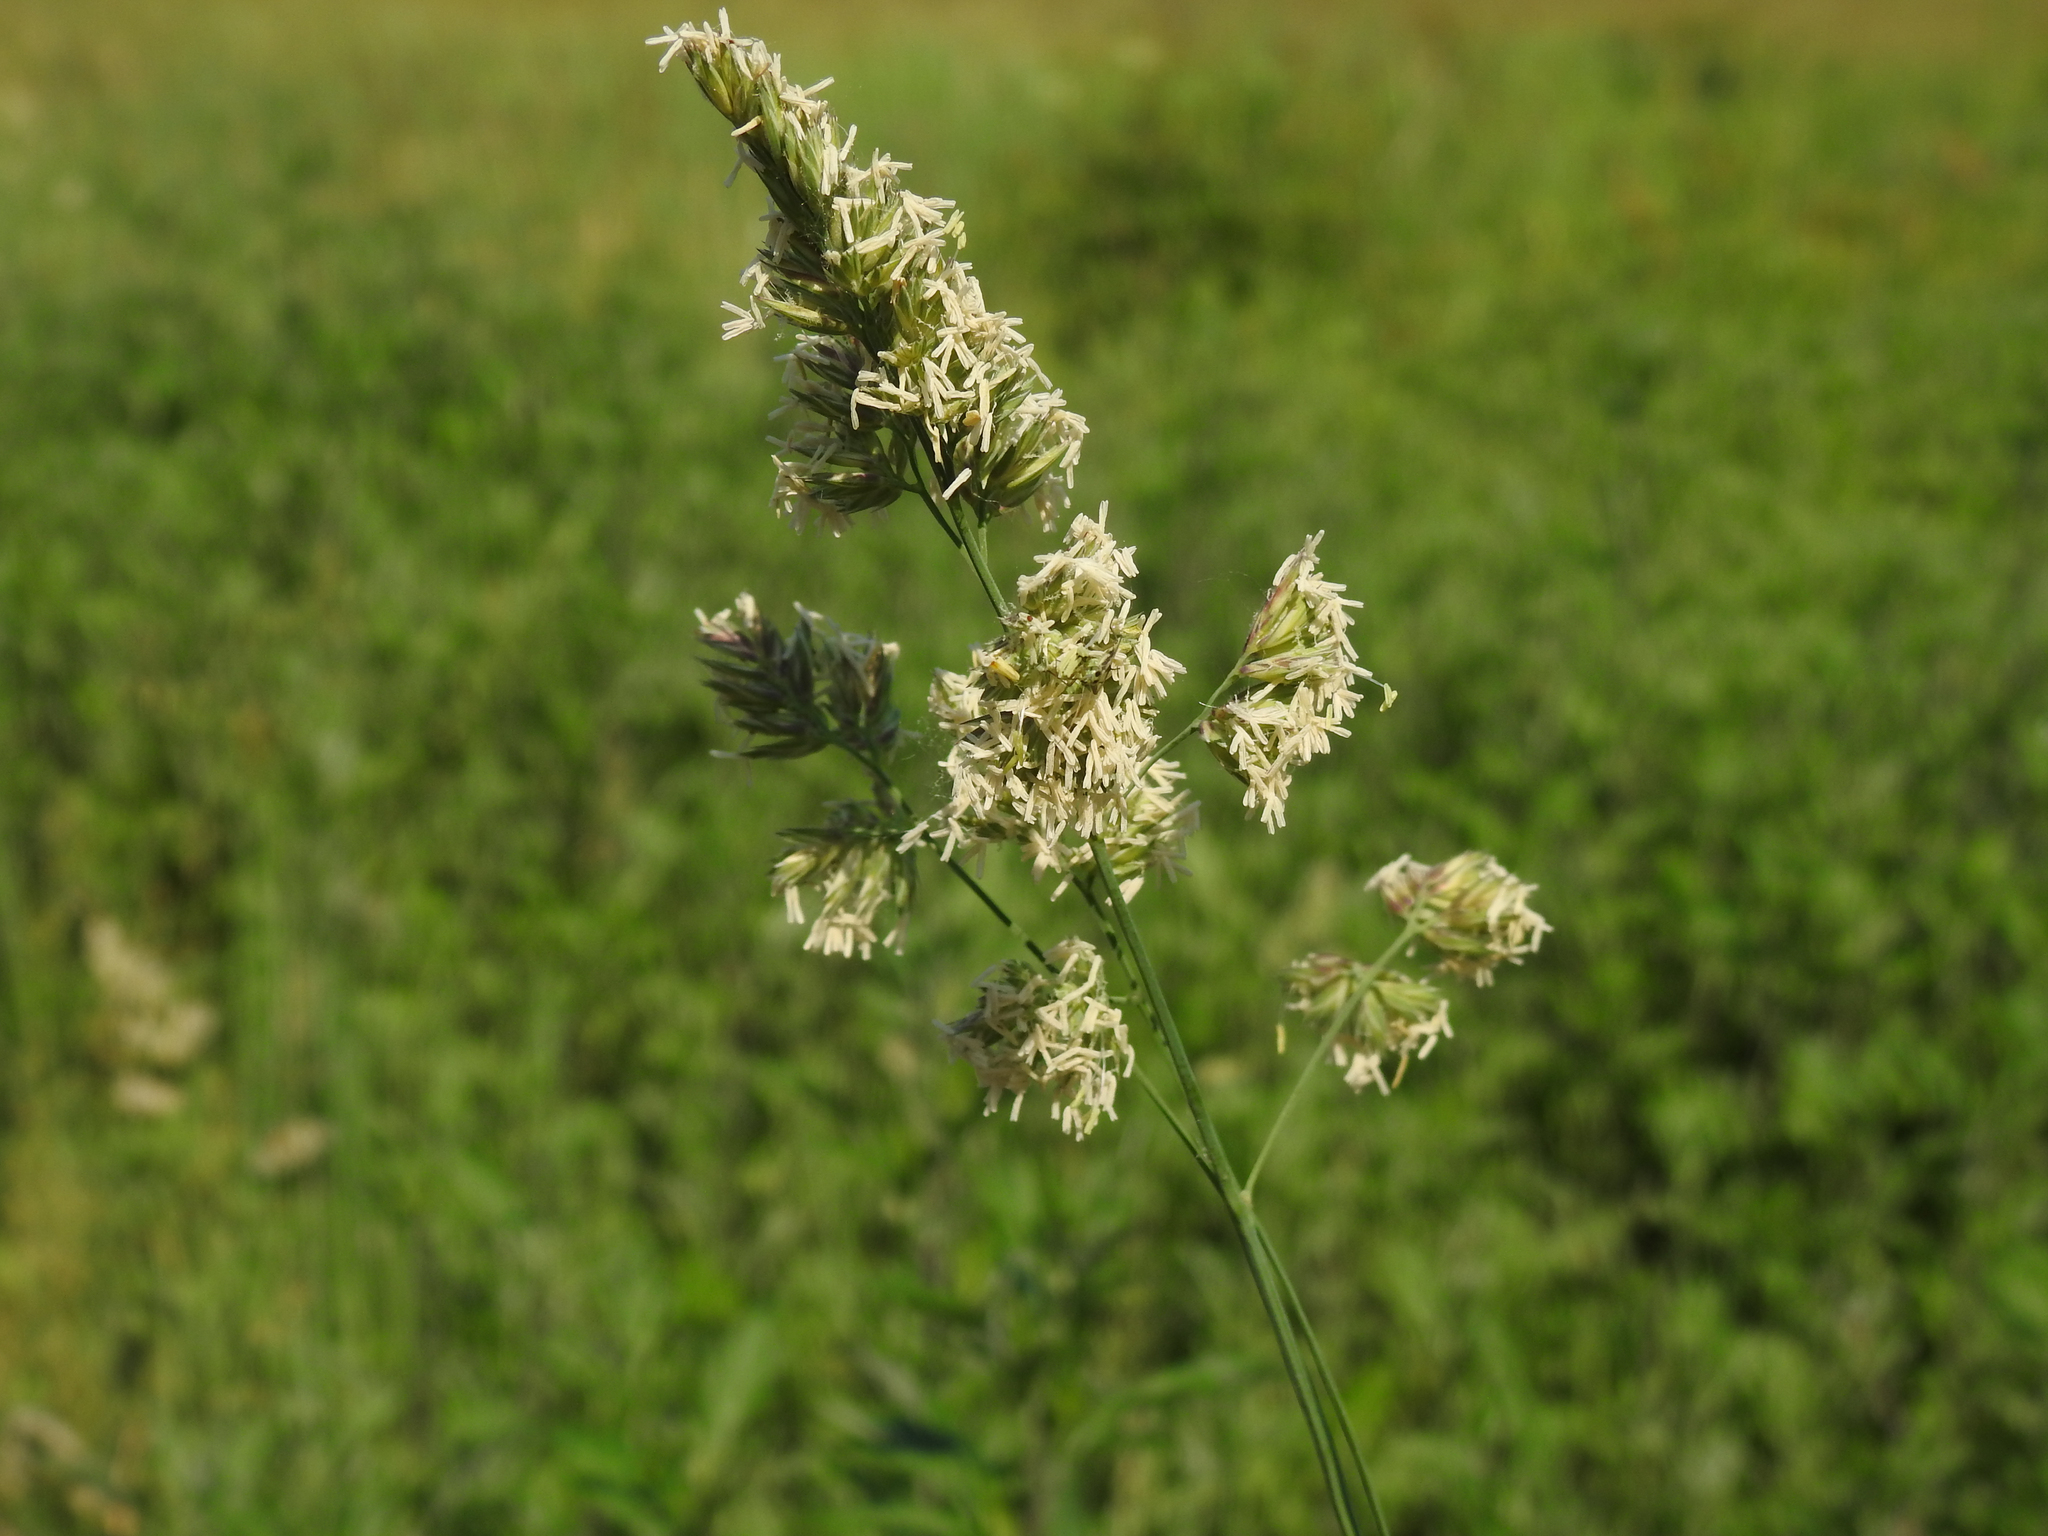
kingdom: Plantae
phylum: Tracheophyta
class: Liliopsida
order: Poales
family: Poaceae
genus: Dactylis
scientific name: Dactylis glomerata
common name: Orchardgrass
